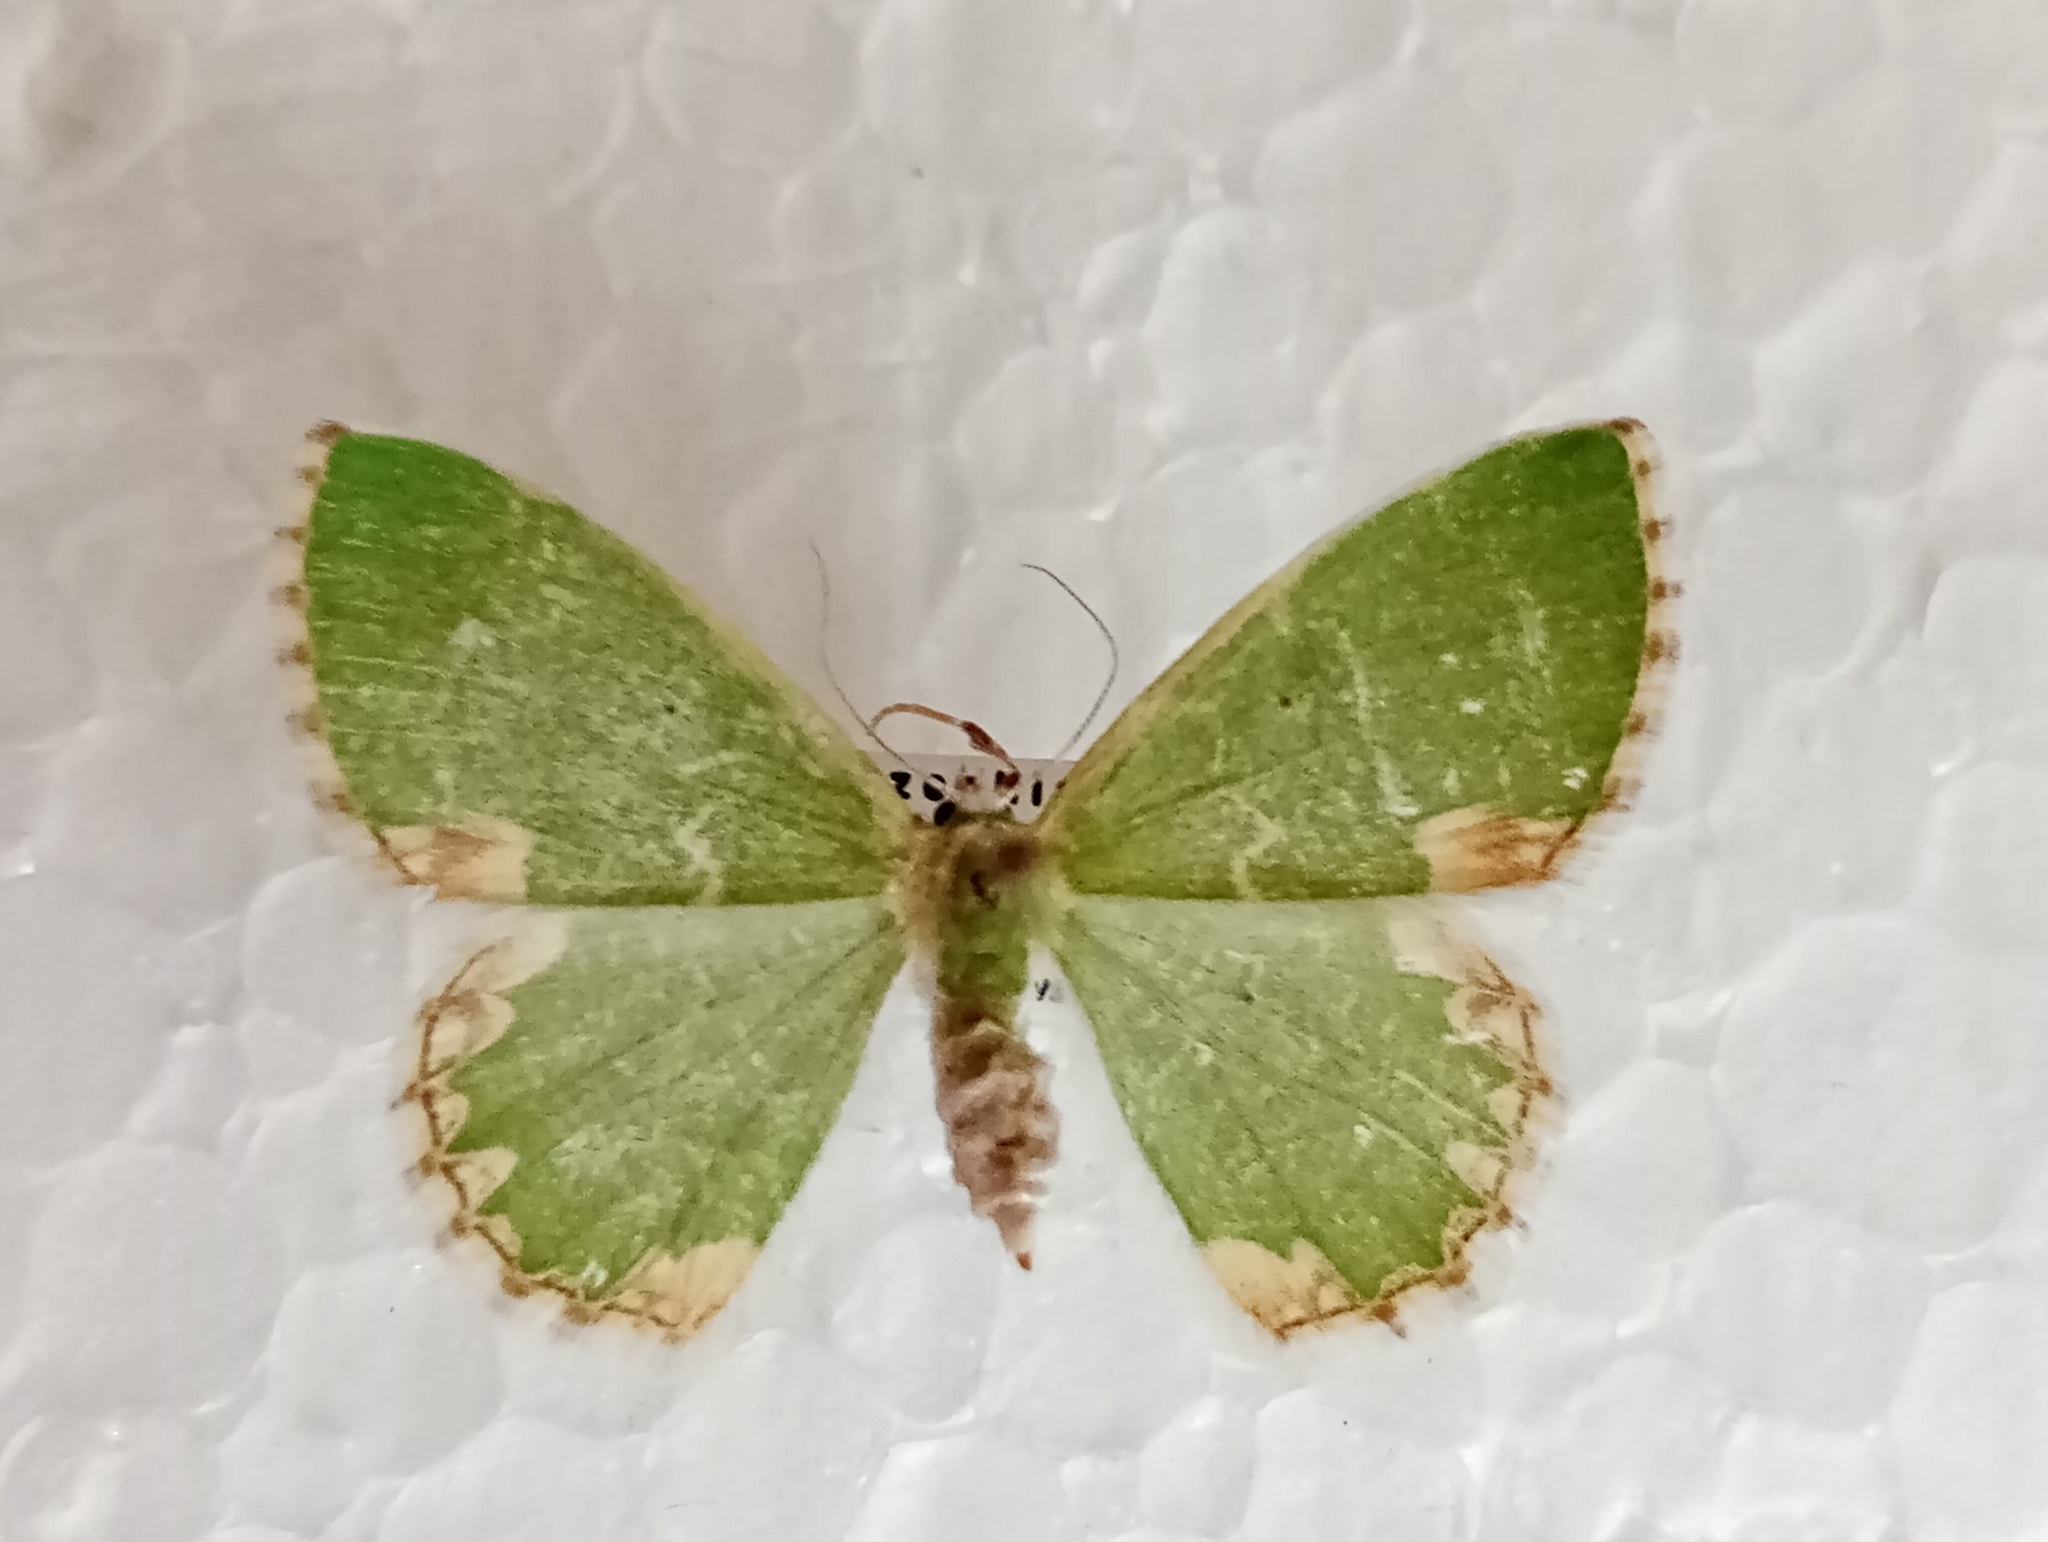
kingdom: Animalia
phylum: Arthropoda
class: Insecta
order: Lepidoptera
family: Geometridae
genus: Comibaena
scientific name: Comibaena bajularia
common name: Blotched emerald
